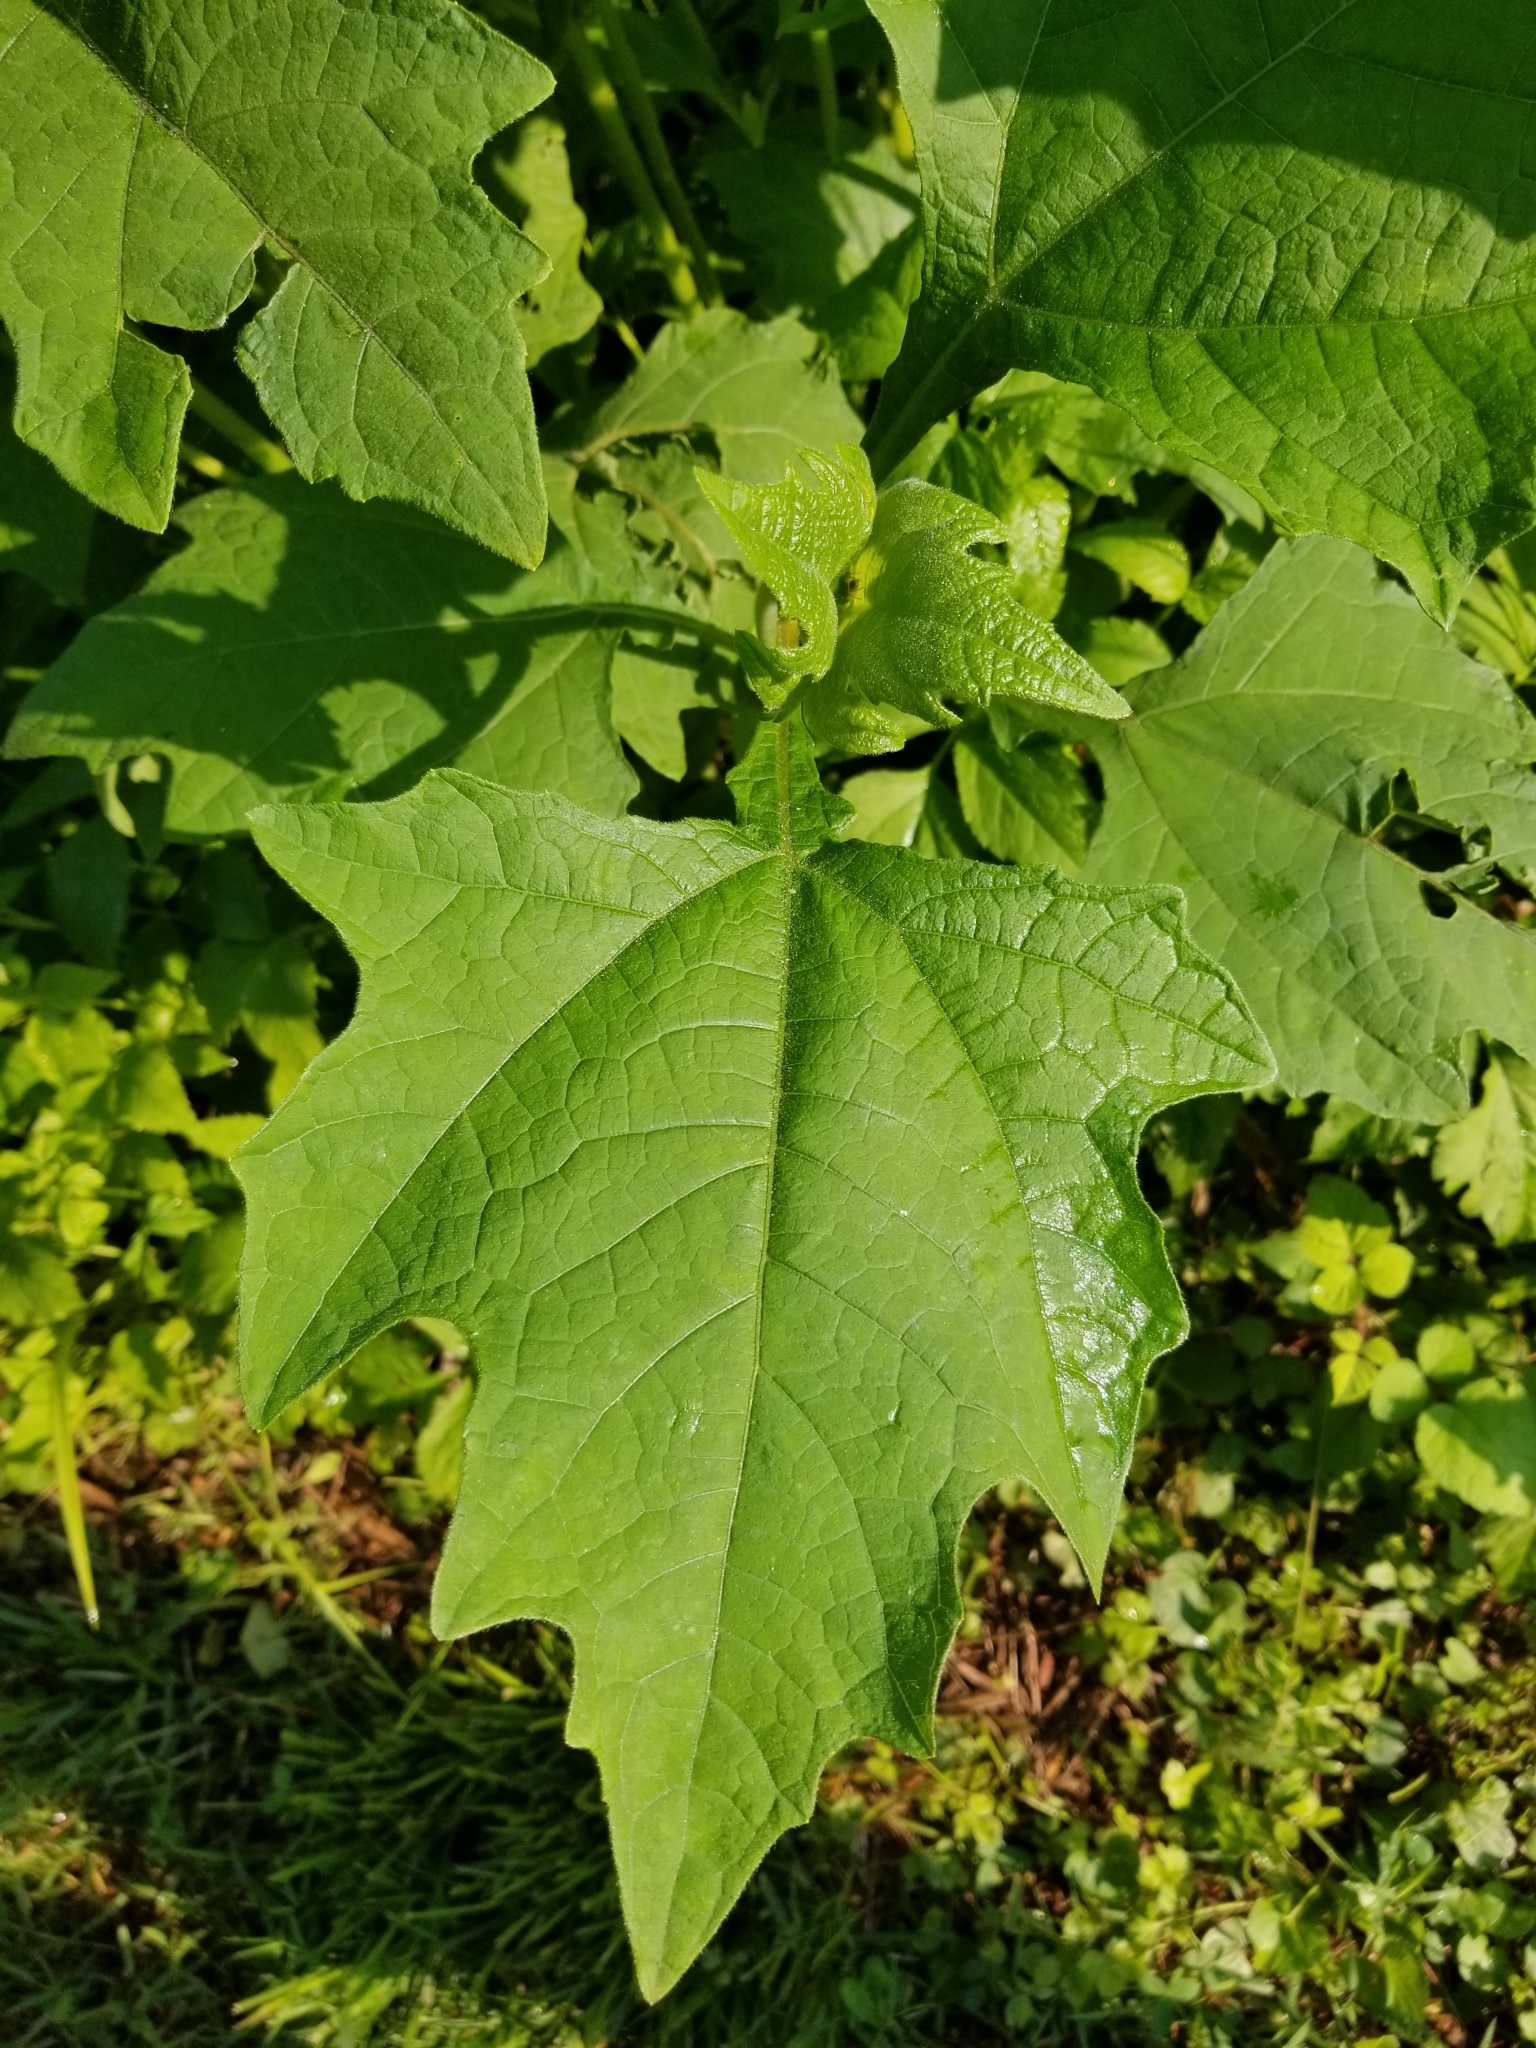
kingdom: Plantae
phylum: Tracheophyta
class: Magnoliopsida
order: Asterales
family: Asteraceae
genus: Smallanthus
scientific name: Smallanthus uvedalia
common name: Bear's-foot
